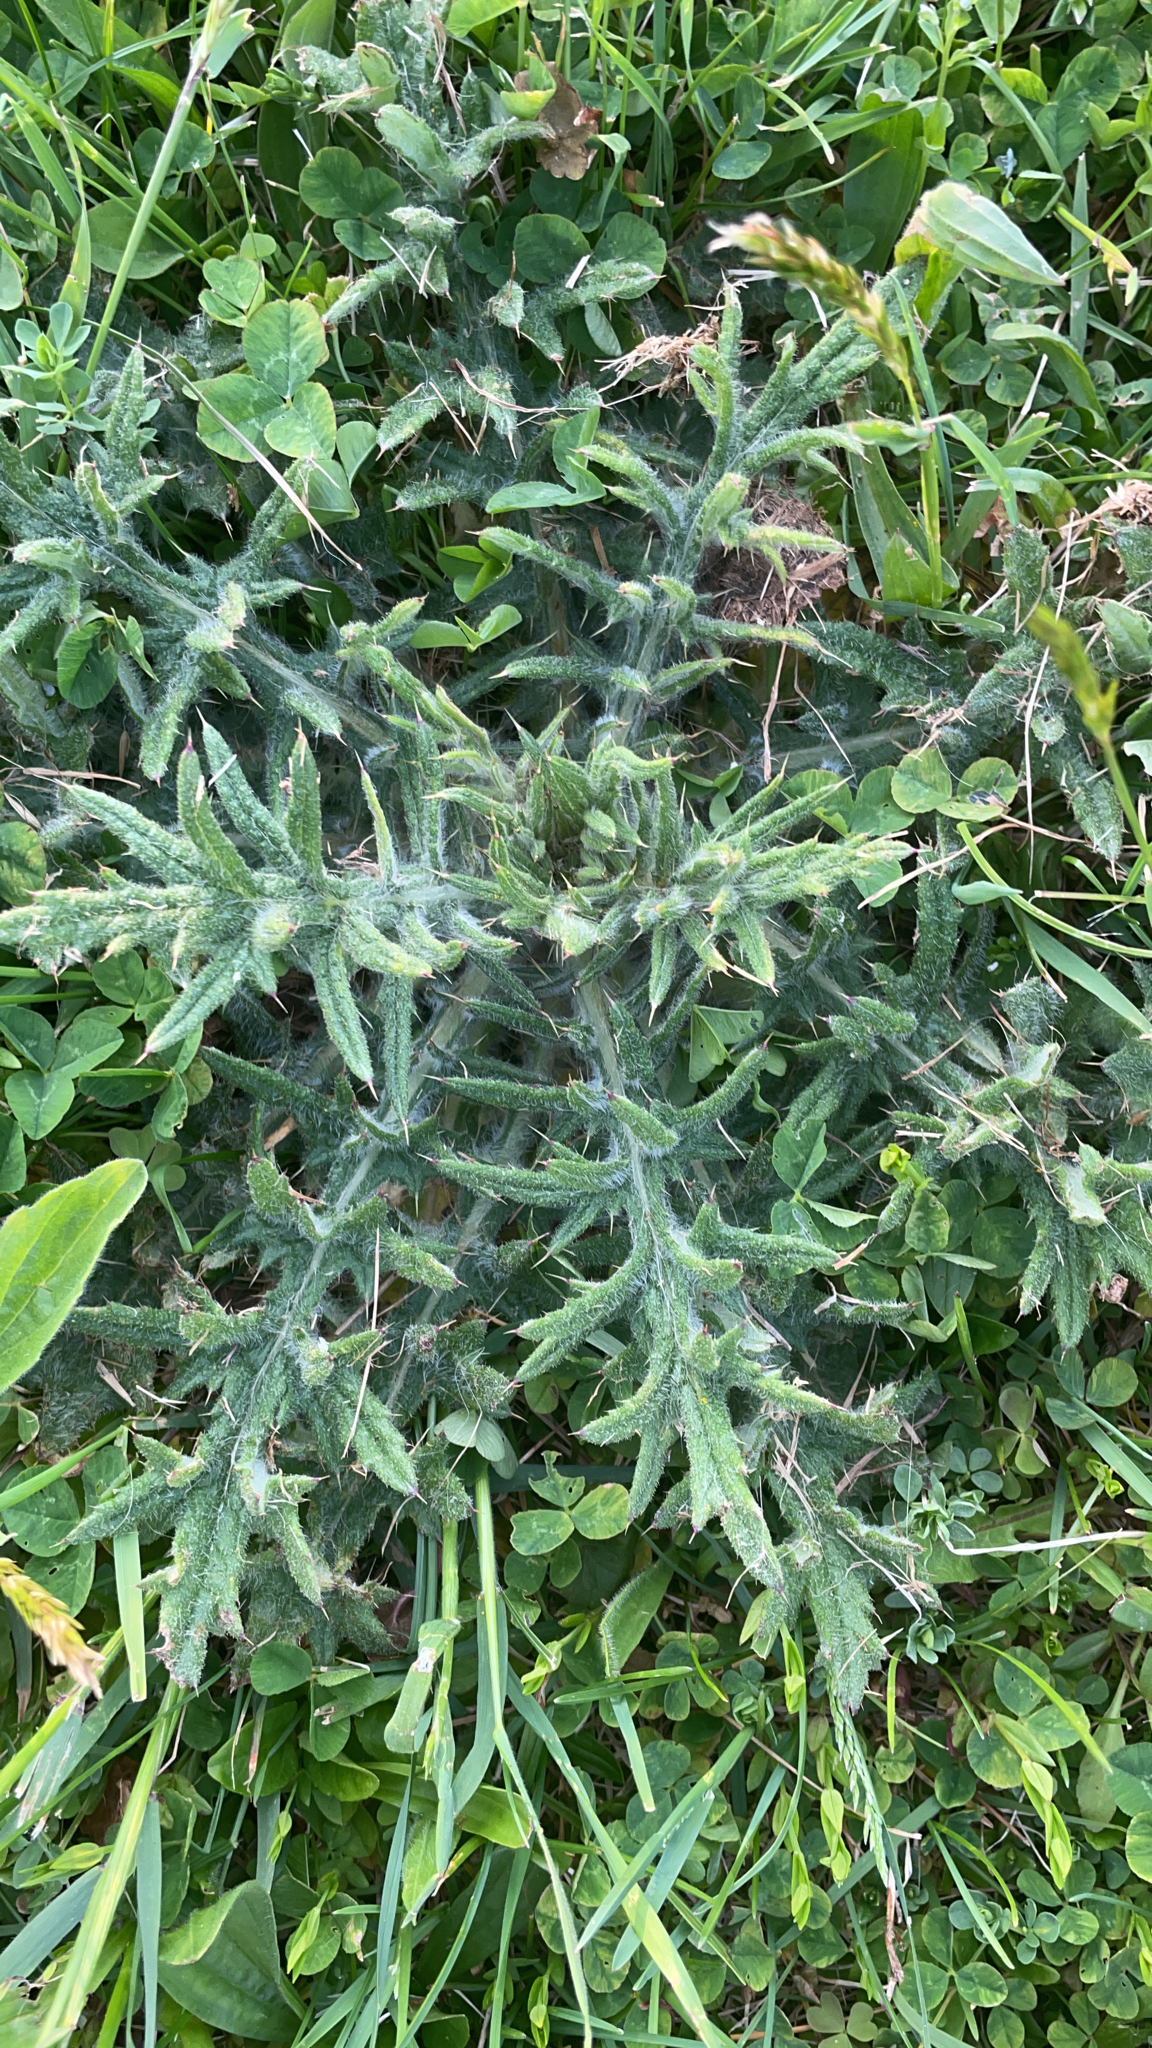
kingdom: Plantae
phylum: Tracheophyta
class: Magnoliopsida
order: Asterales
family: Asteraceae
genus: Cirsium
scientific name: Cirsium vulgare
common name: Bull thistle
